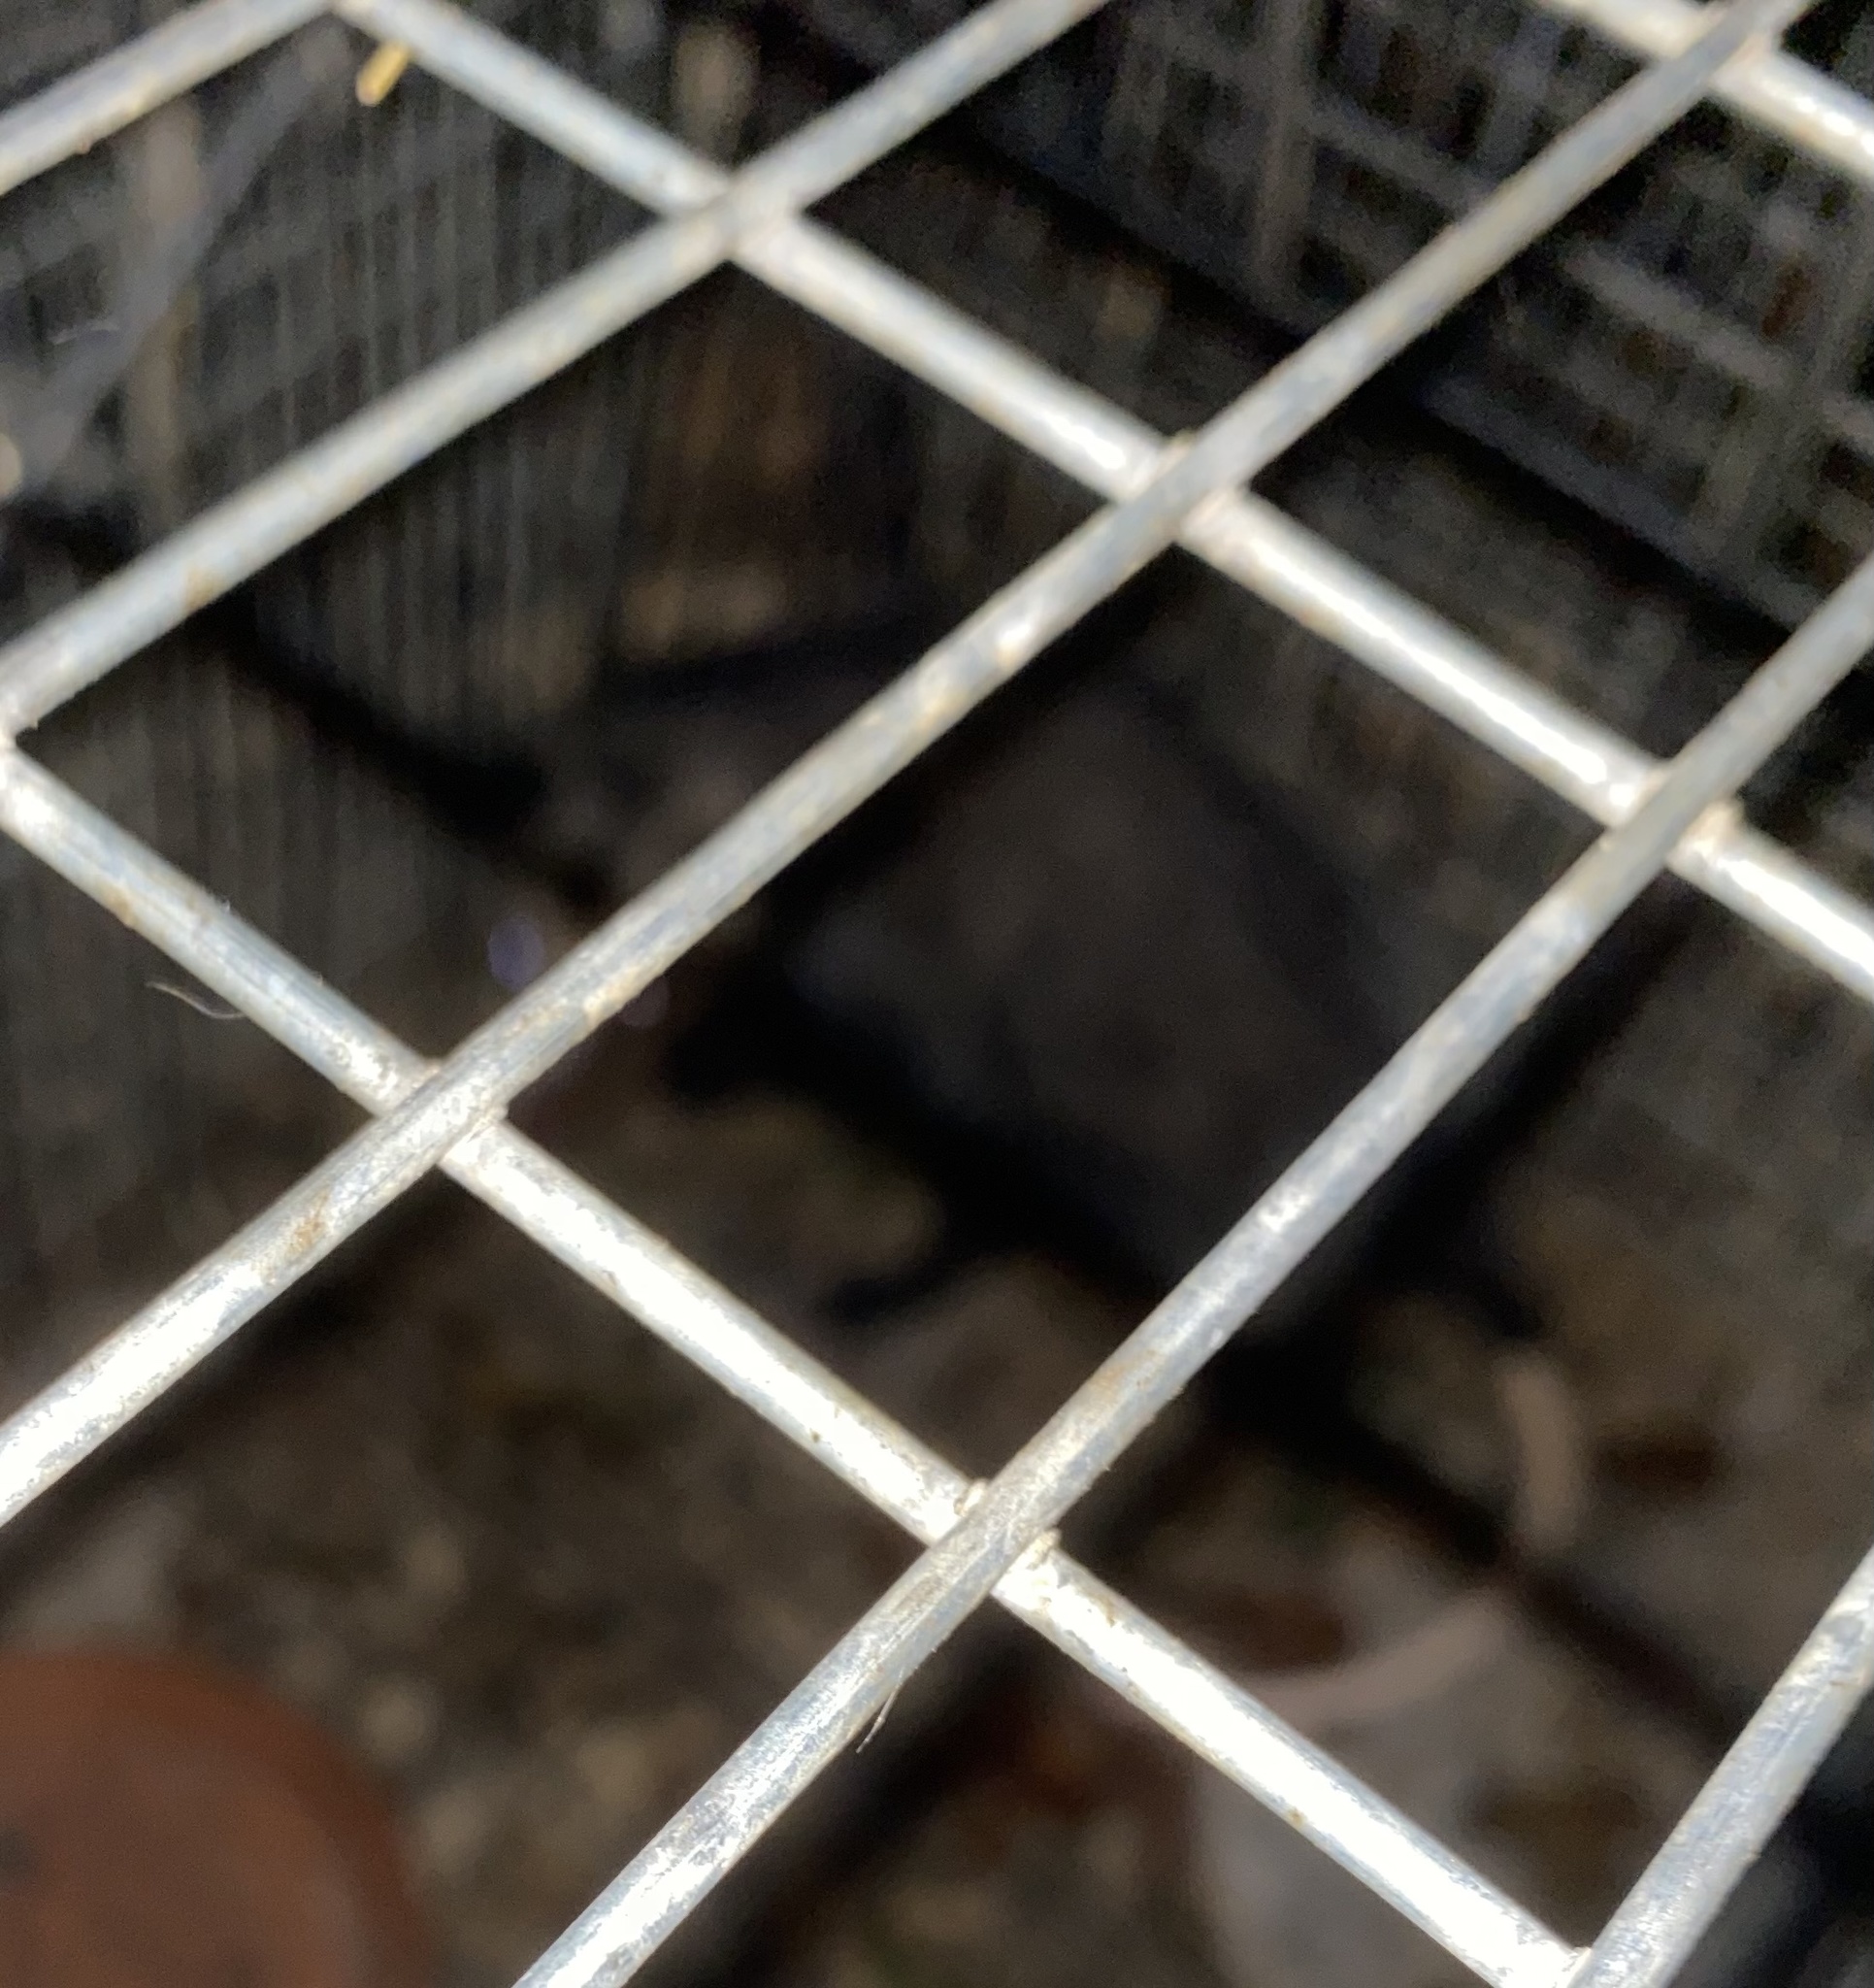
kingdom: Animalia
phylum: Chordata
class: Mammalia
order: Didelphimorphia
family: Didelphidae
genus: Didelphis
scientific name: Didelphis virginiana
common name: Virginia opossum
